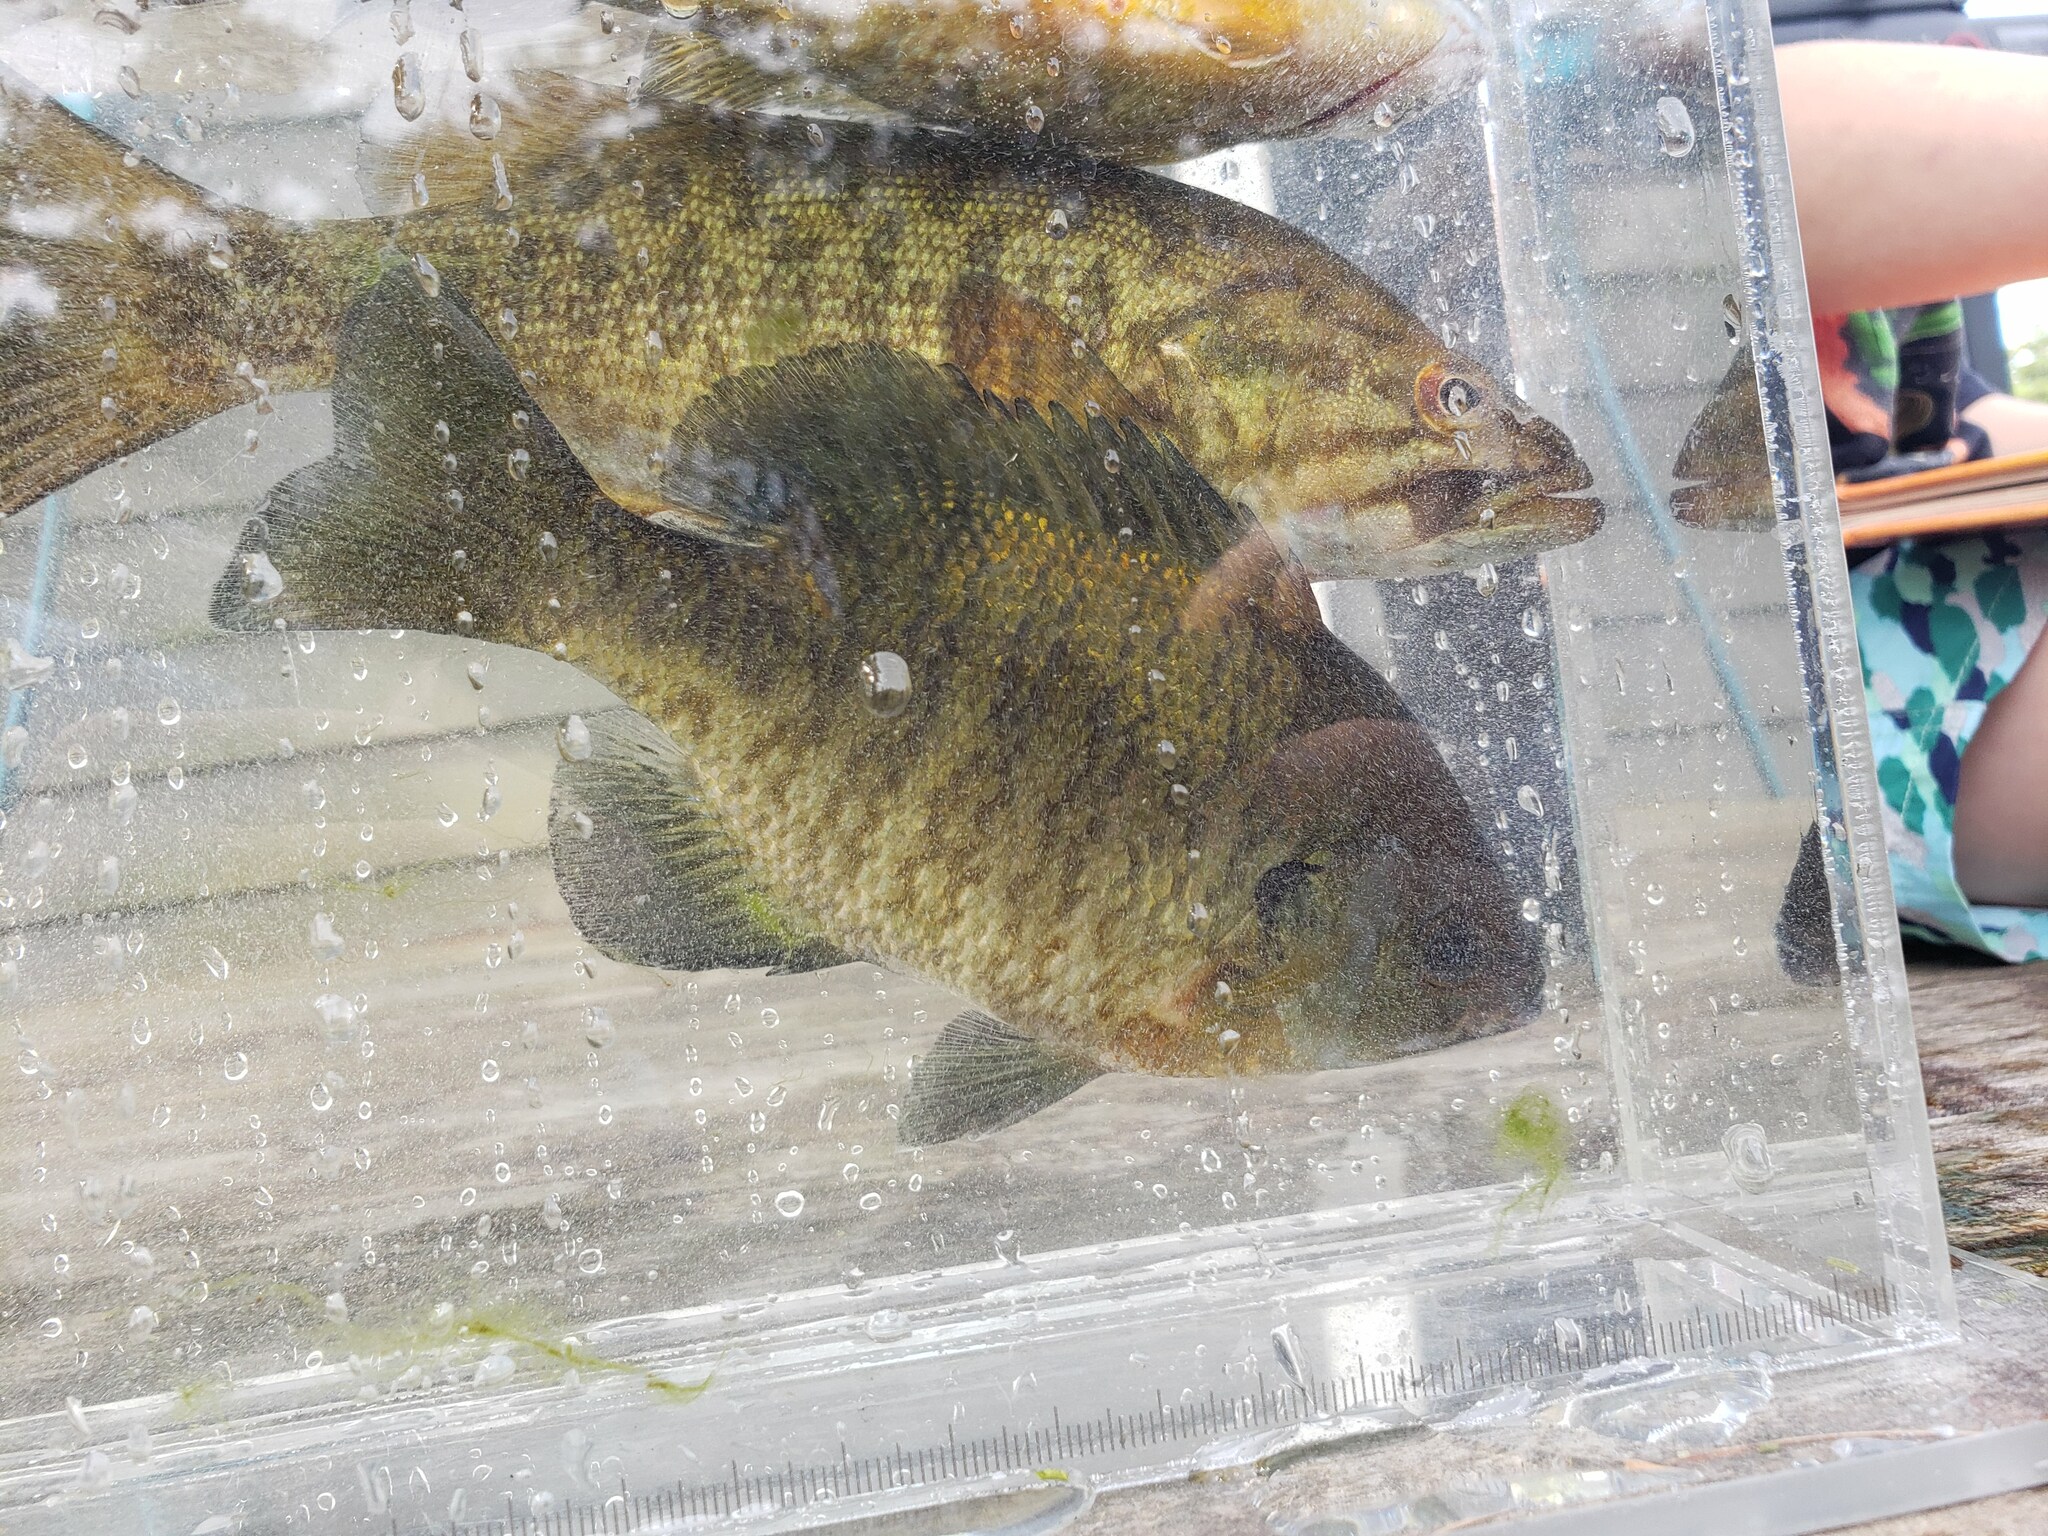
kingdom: Animalia
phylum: Chordata
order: Perciformes
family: Centrarchidae
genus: Lepomis
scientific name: Lepomis macrochirus
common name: Bluegill
